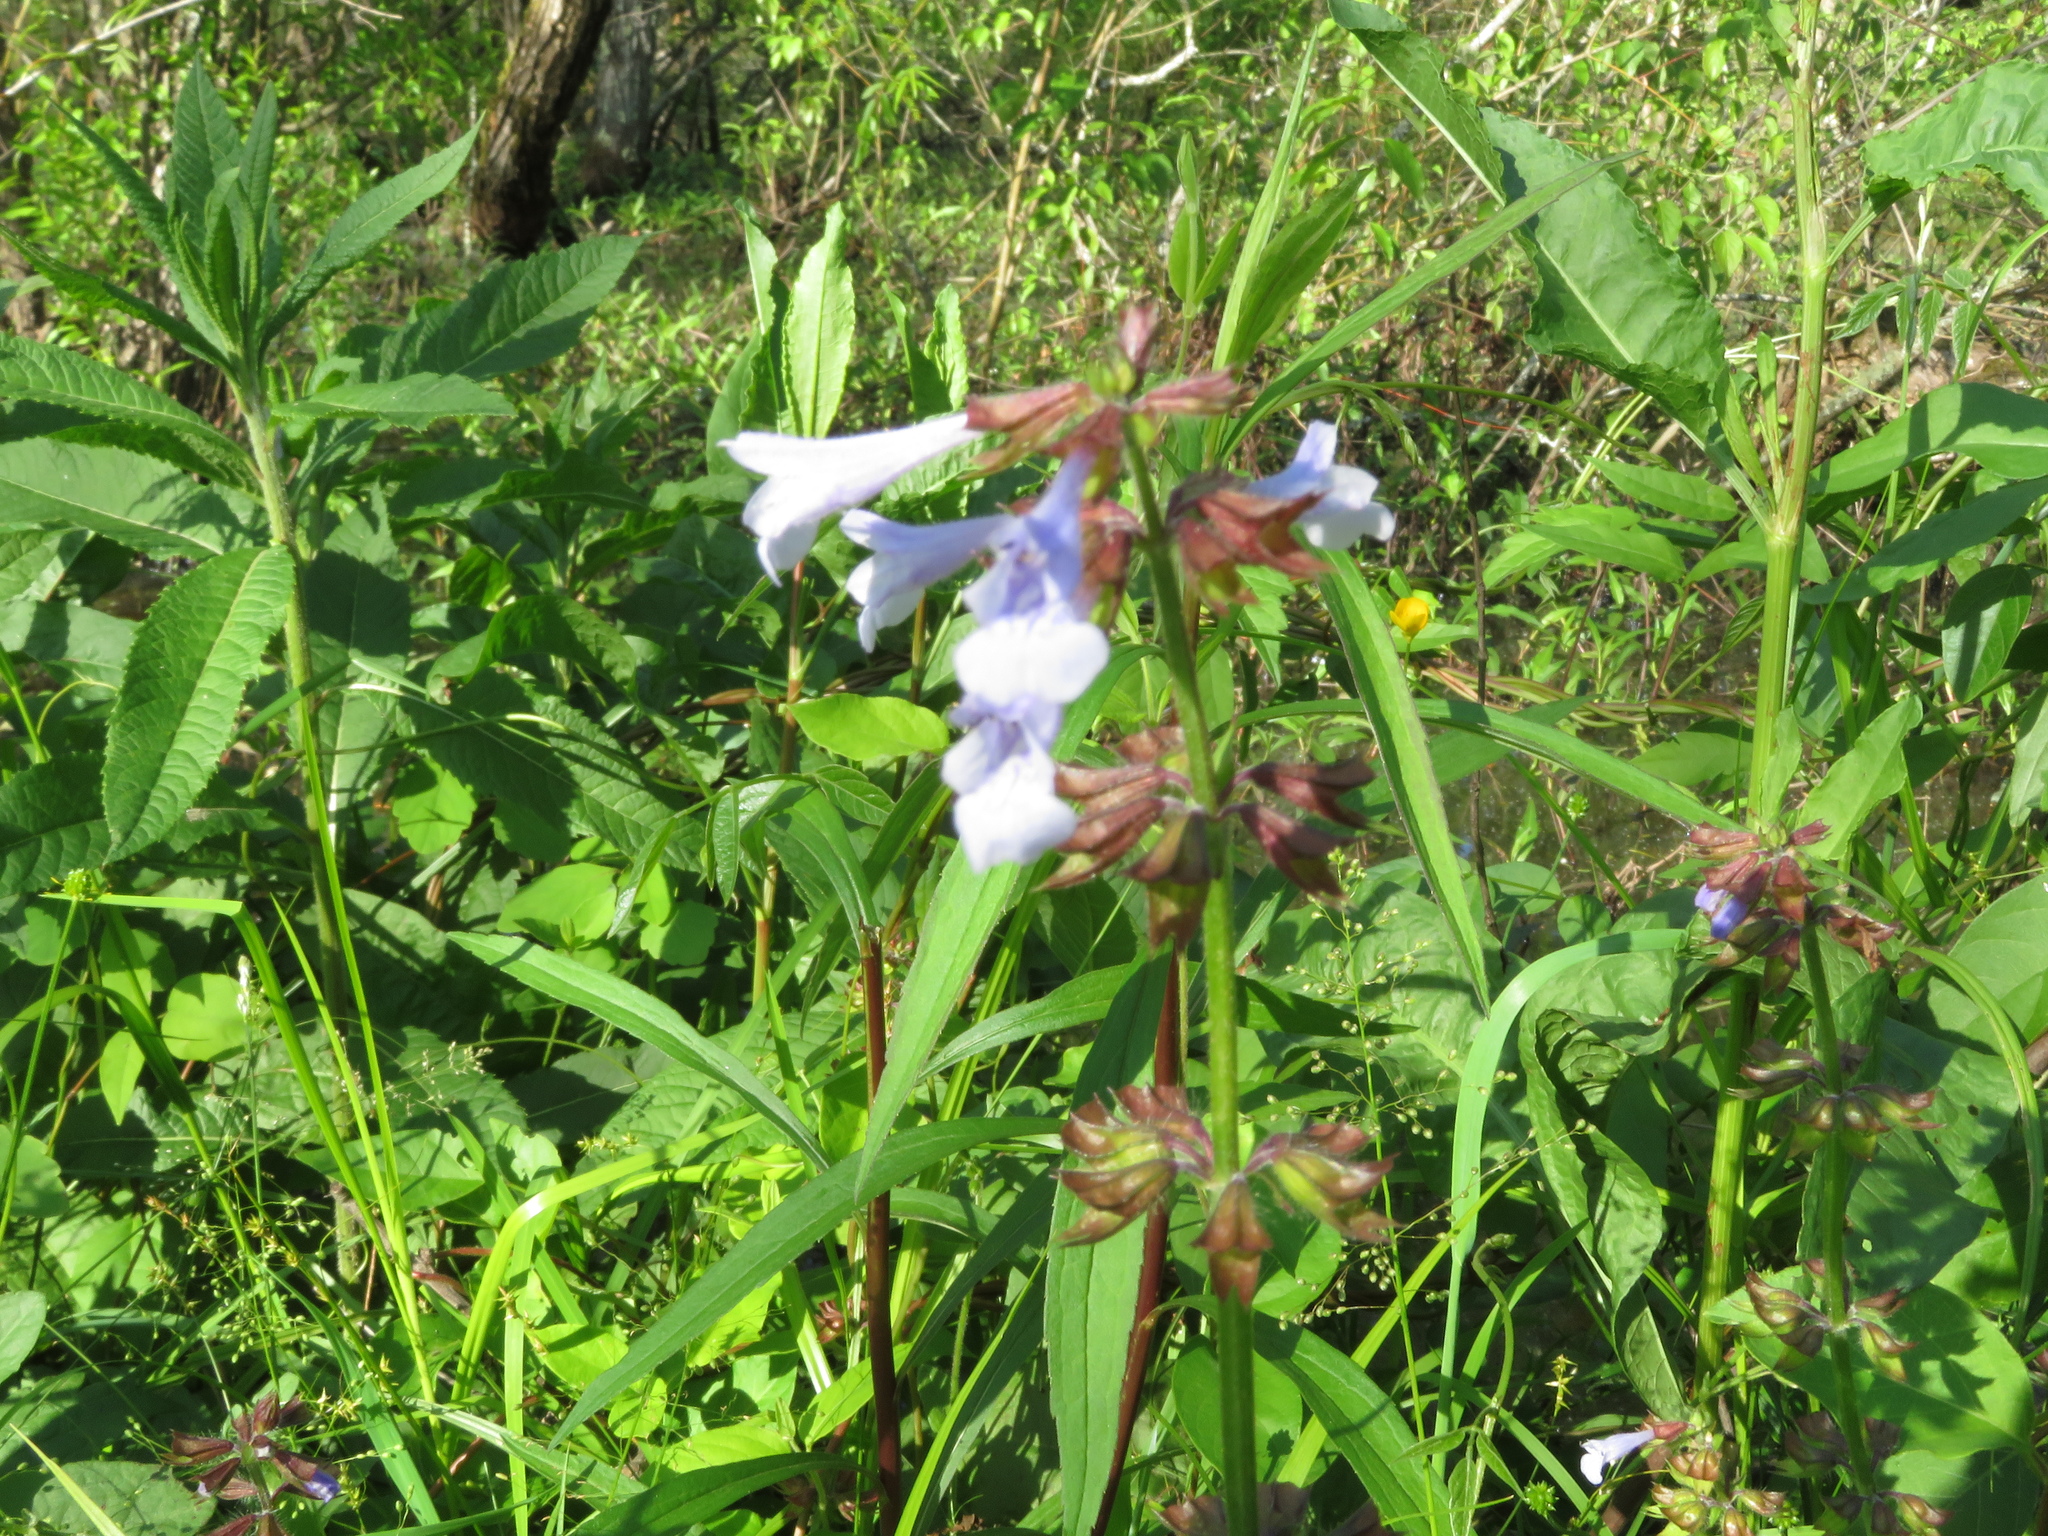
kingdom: Plantae
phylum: Tracheophyta
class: Magnoliopsida
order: Lamiales
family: Lamiaceae
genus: Salvia
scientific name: Salvia lyrata
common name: Cancerweed
